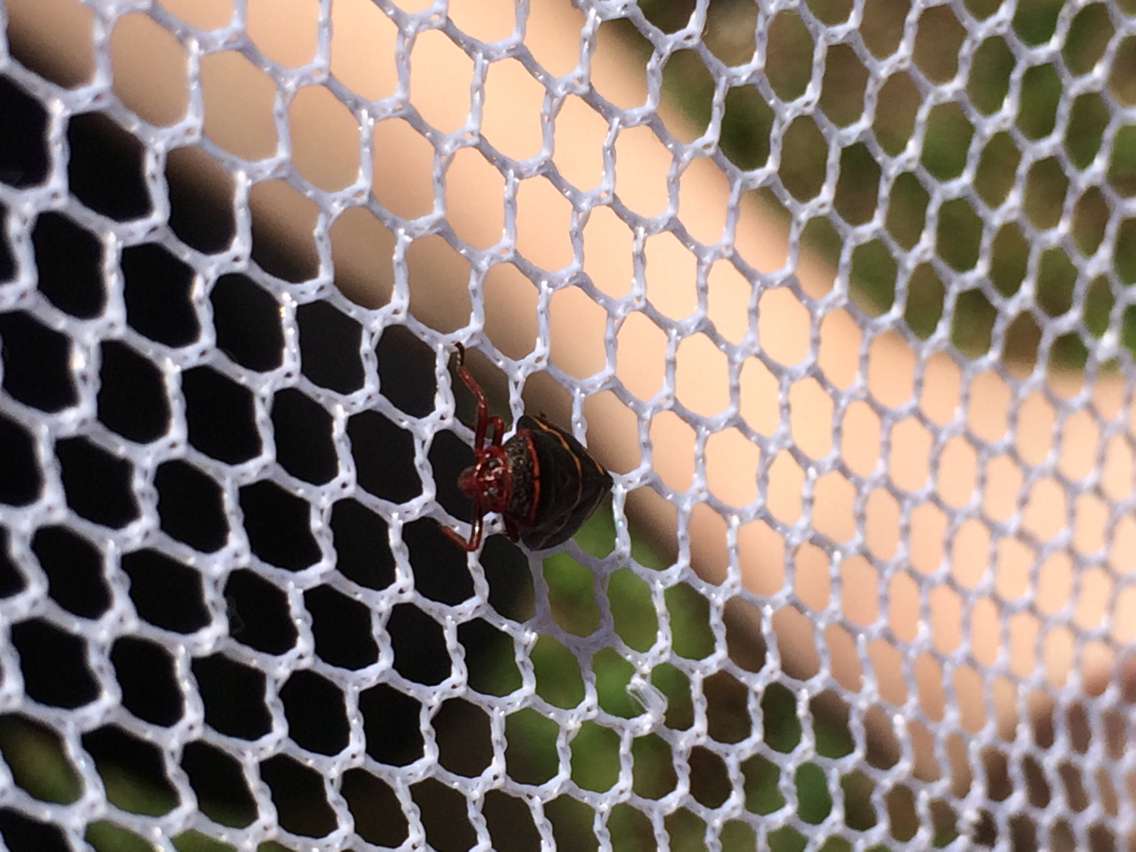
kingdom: Animalia
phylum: Arthropoda
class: Insecta
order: Hemiptera
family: Cercopidae
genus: Prosapia
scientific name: Prosapia bicincta
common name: Twolined spittlebug
